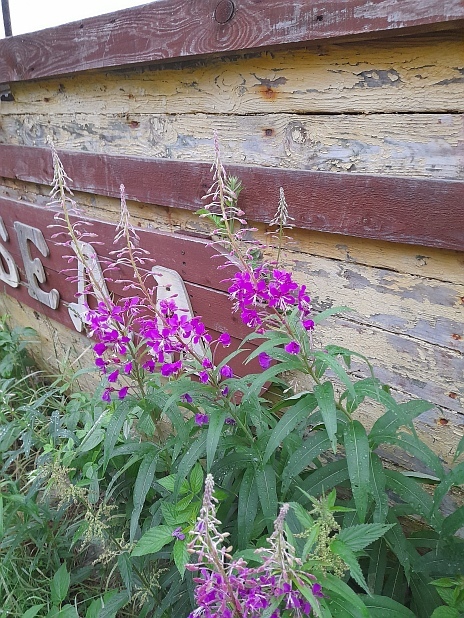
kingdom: Plantae
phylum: Tracheophyta
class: Magnoliopsida
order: Myrtales
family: Onagraceae
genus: Chamaenerion
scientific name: Chamaenerion angustifolium
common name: Fireweed
